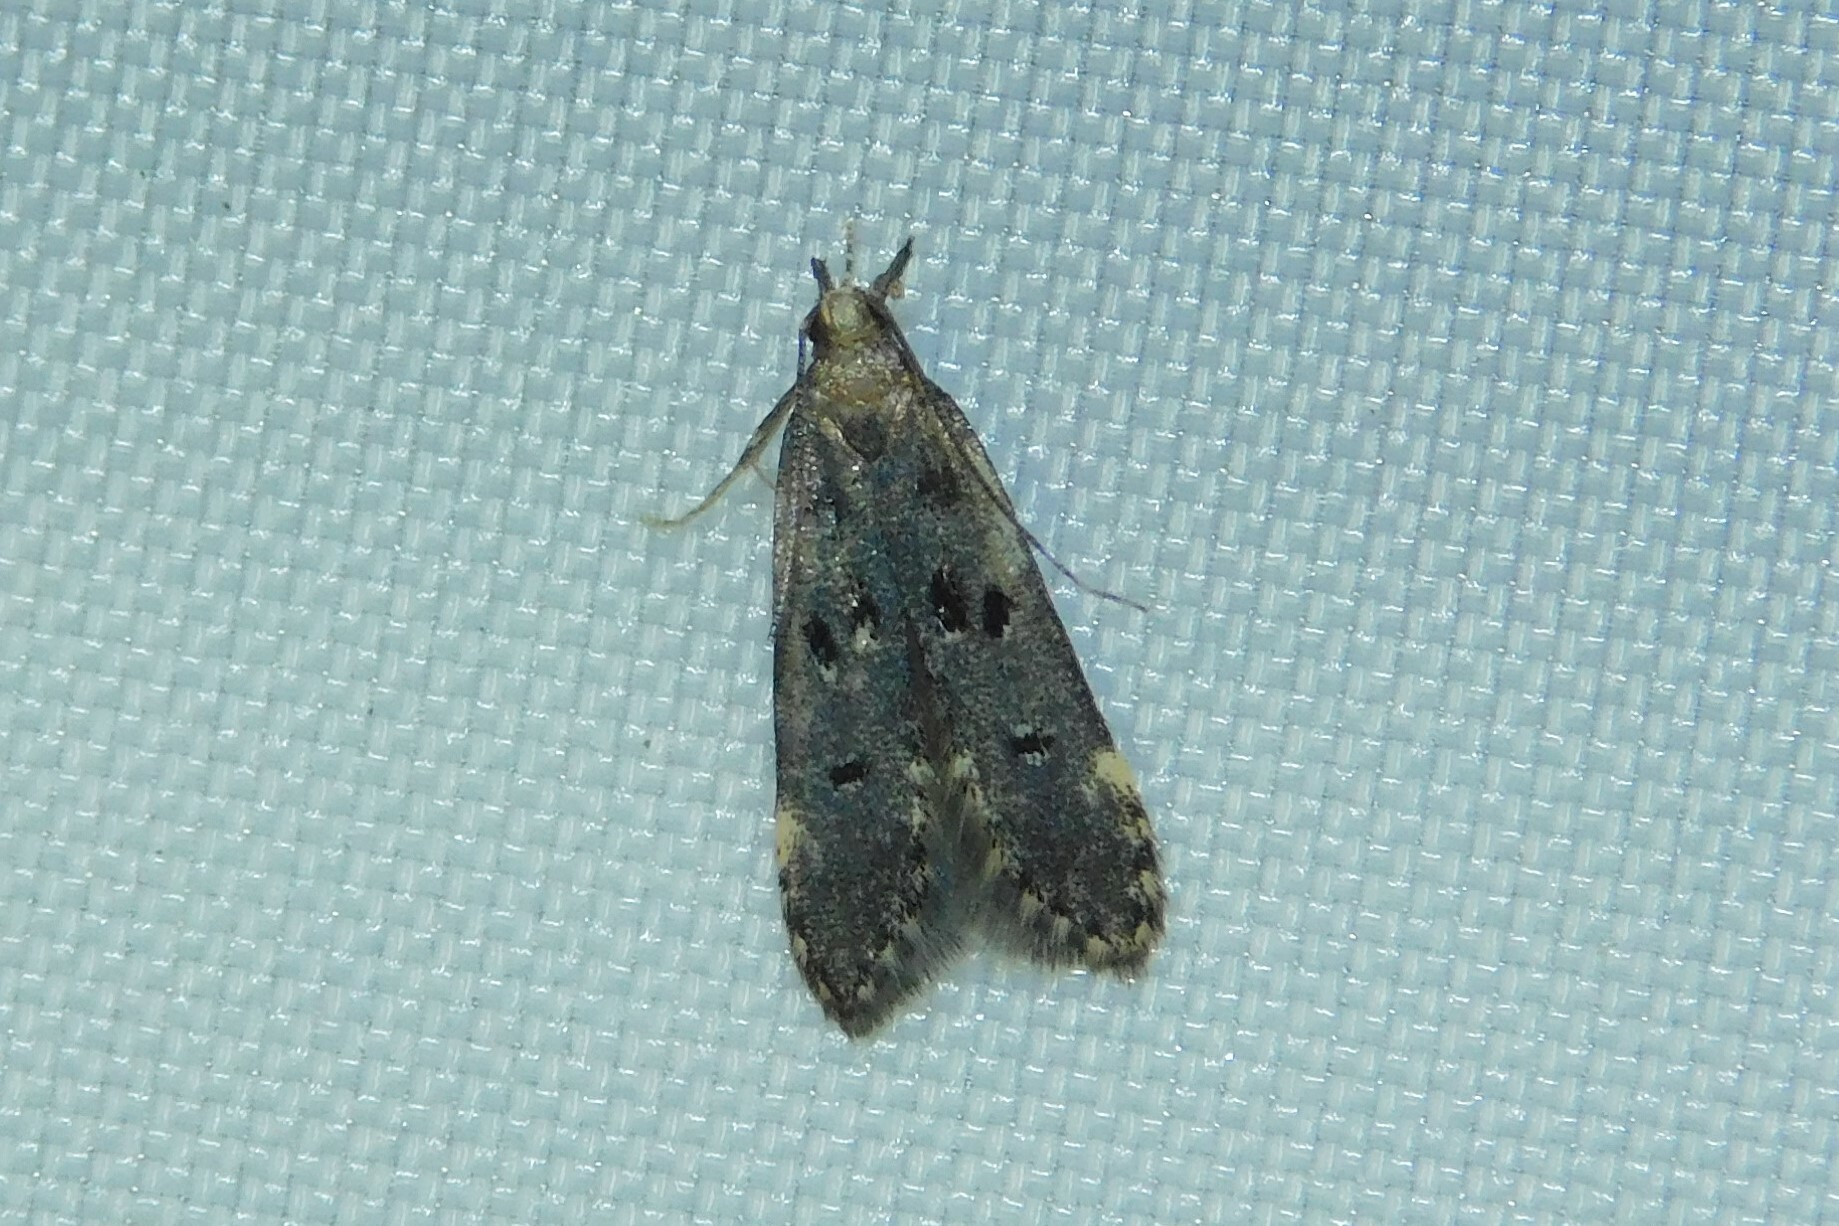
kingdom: Animalia
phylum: Arthropoda
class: Insecta
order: Lepidoptera
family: Gelechiidae
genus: Acanthophila
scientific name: Acanthophila alacella
